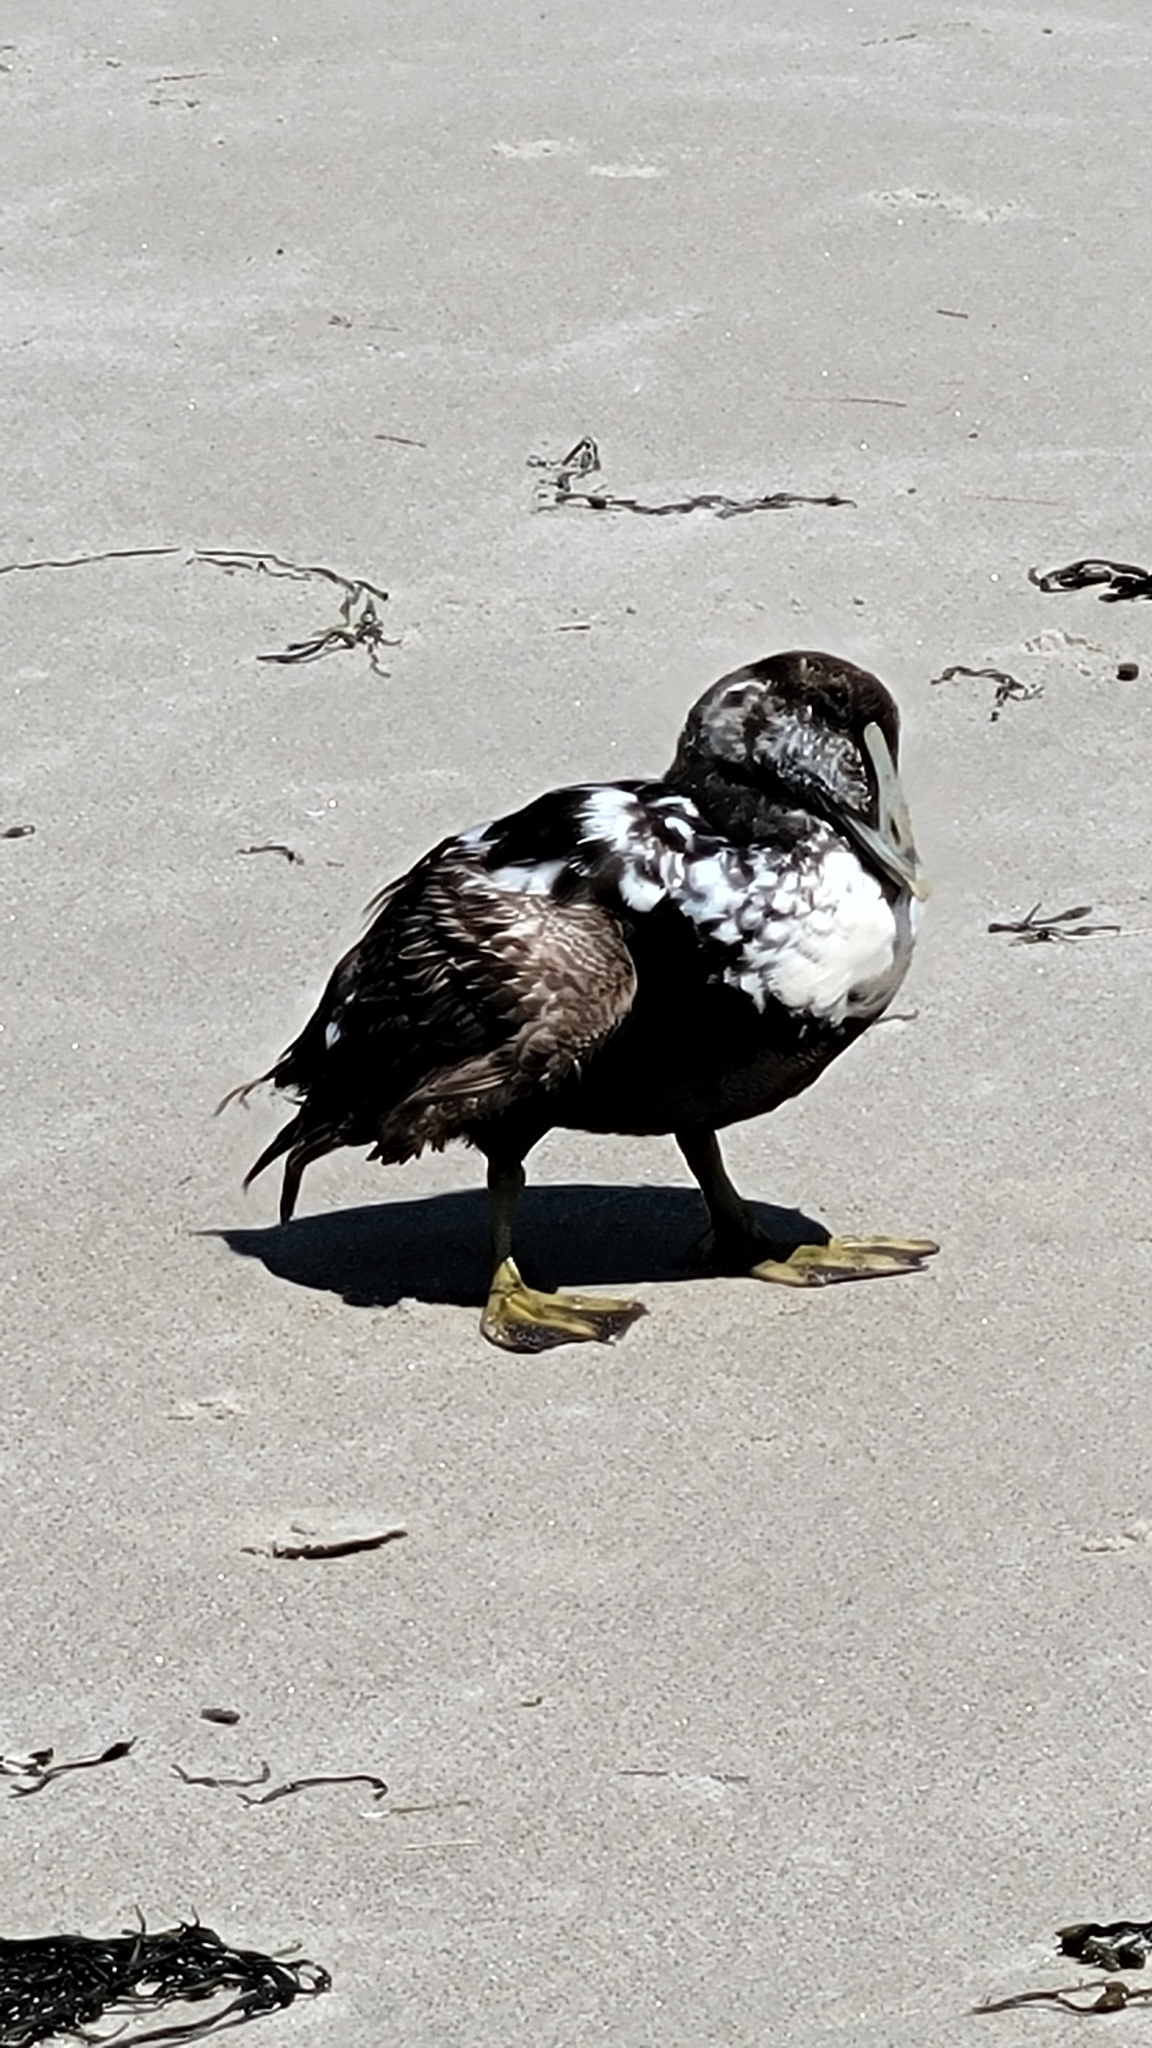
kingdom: Animalia
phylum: Chordata
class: Aves
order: Anseriformes
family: Anatidae
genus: Somateria
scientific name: Somateria mollissima
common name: Common eider
